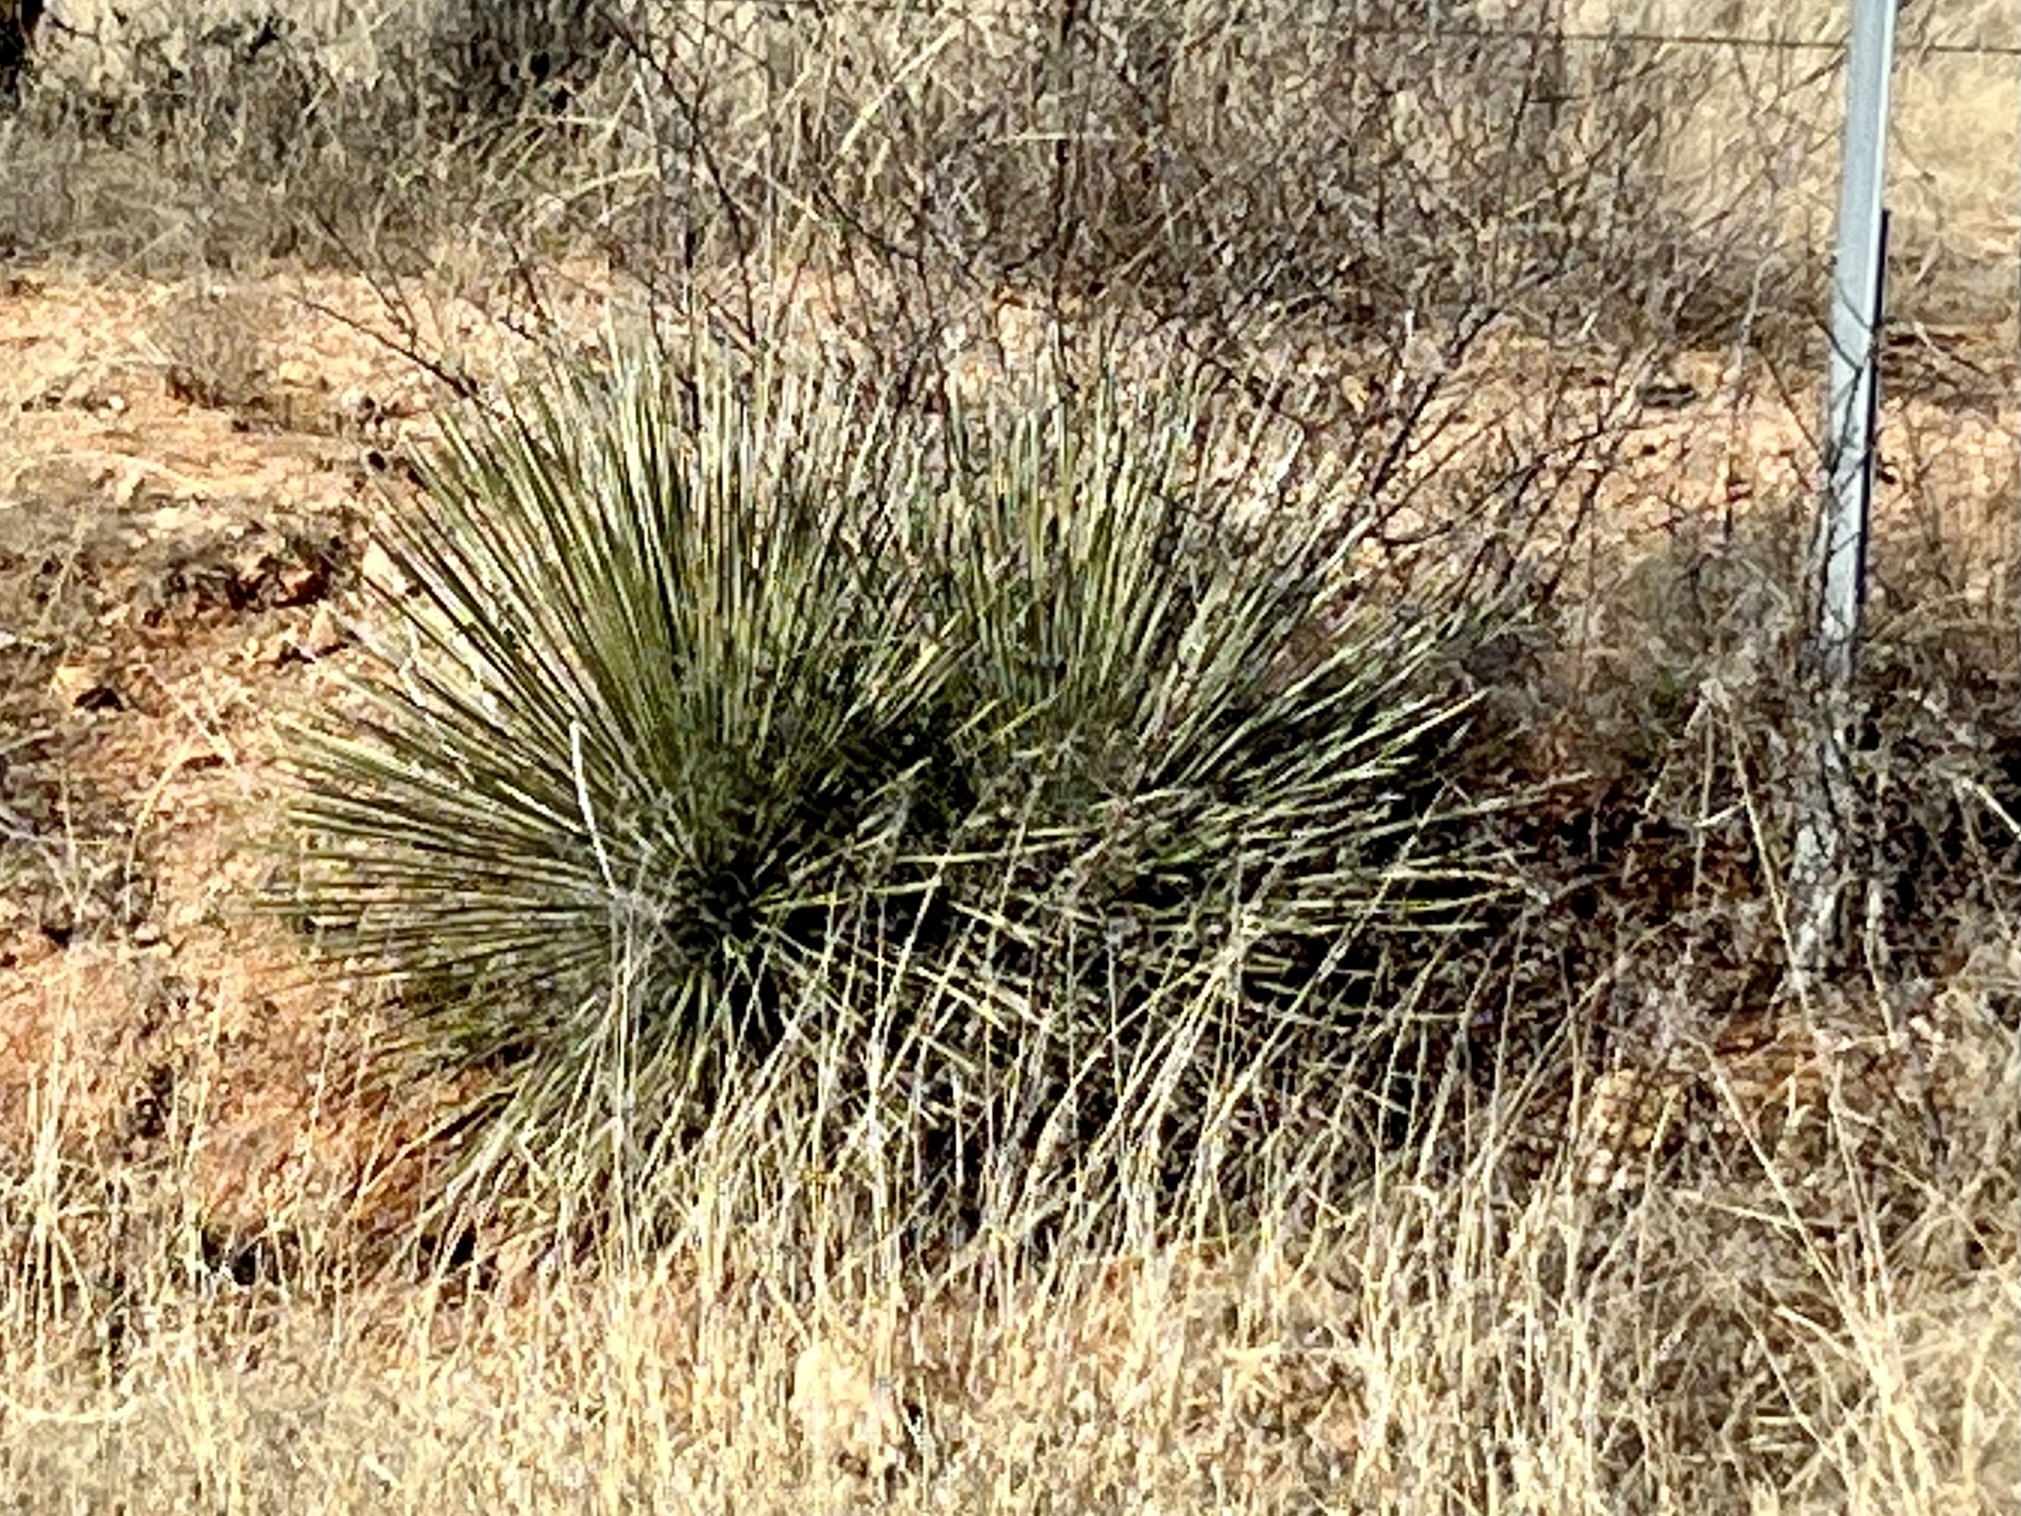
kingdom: Plantae
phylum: Tracheophyta
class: Liliopsida
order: Asparagales
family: Asparagaceae
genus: Yucca
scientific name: Yucca elata
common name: Palmella
